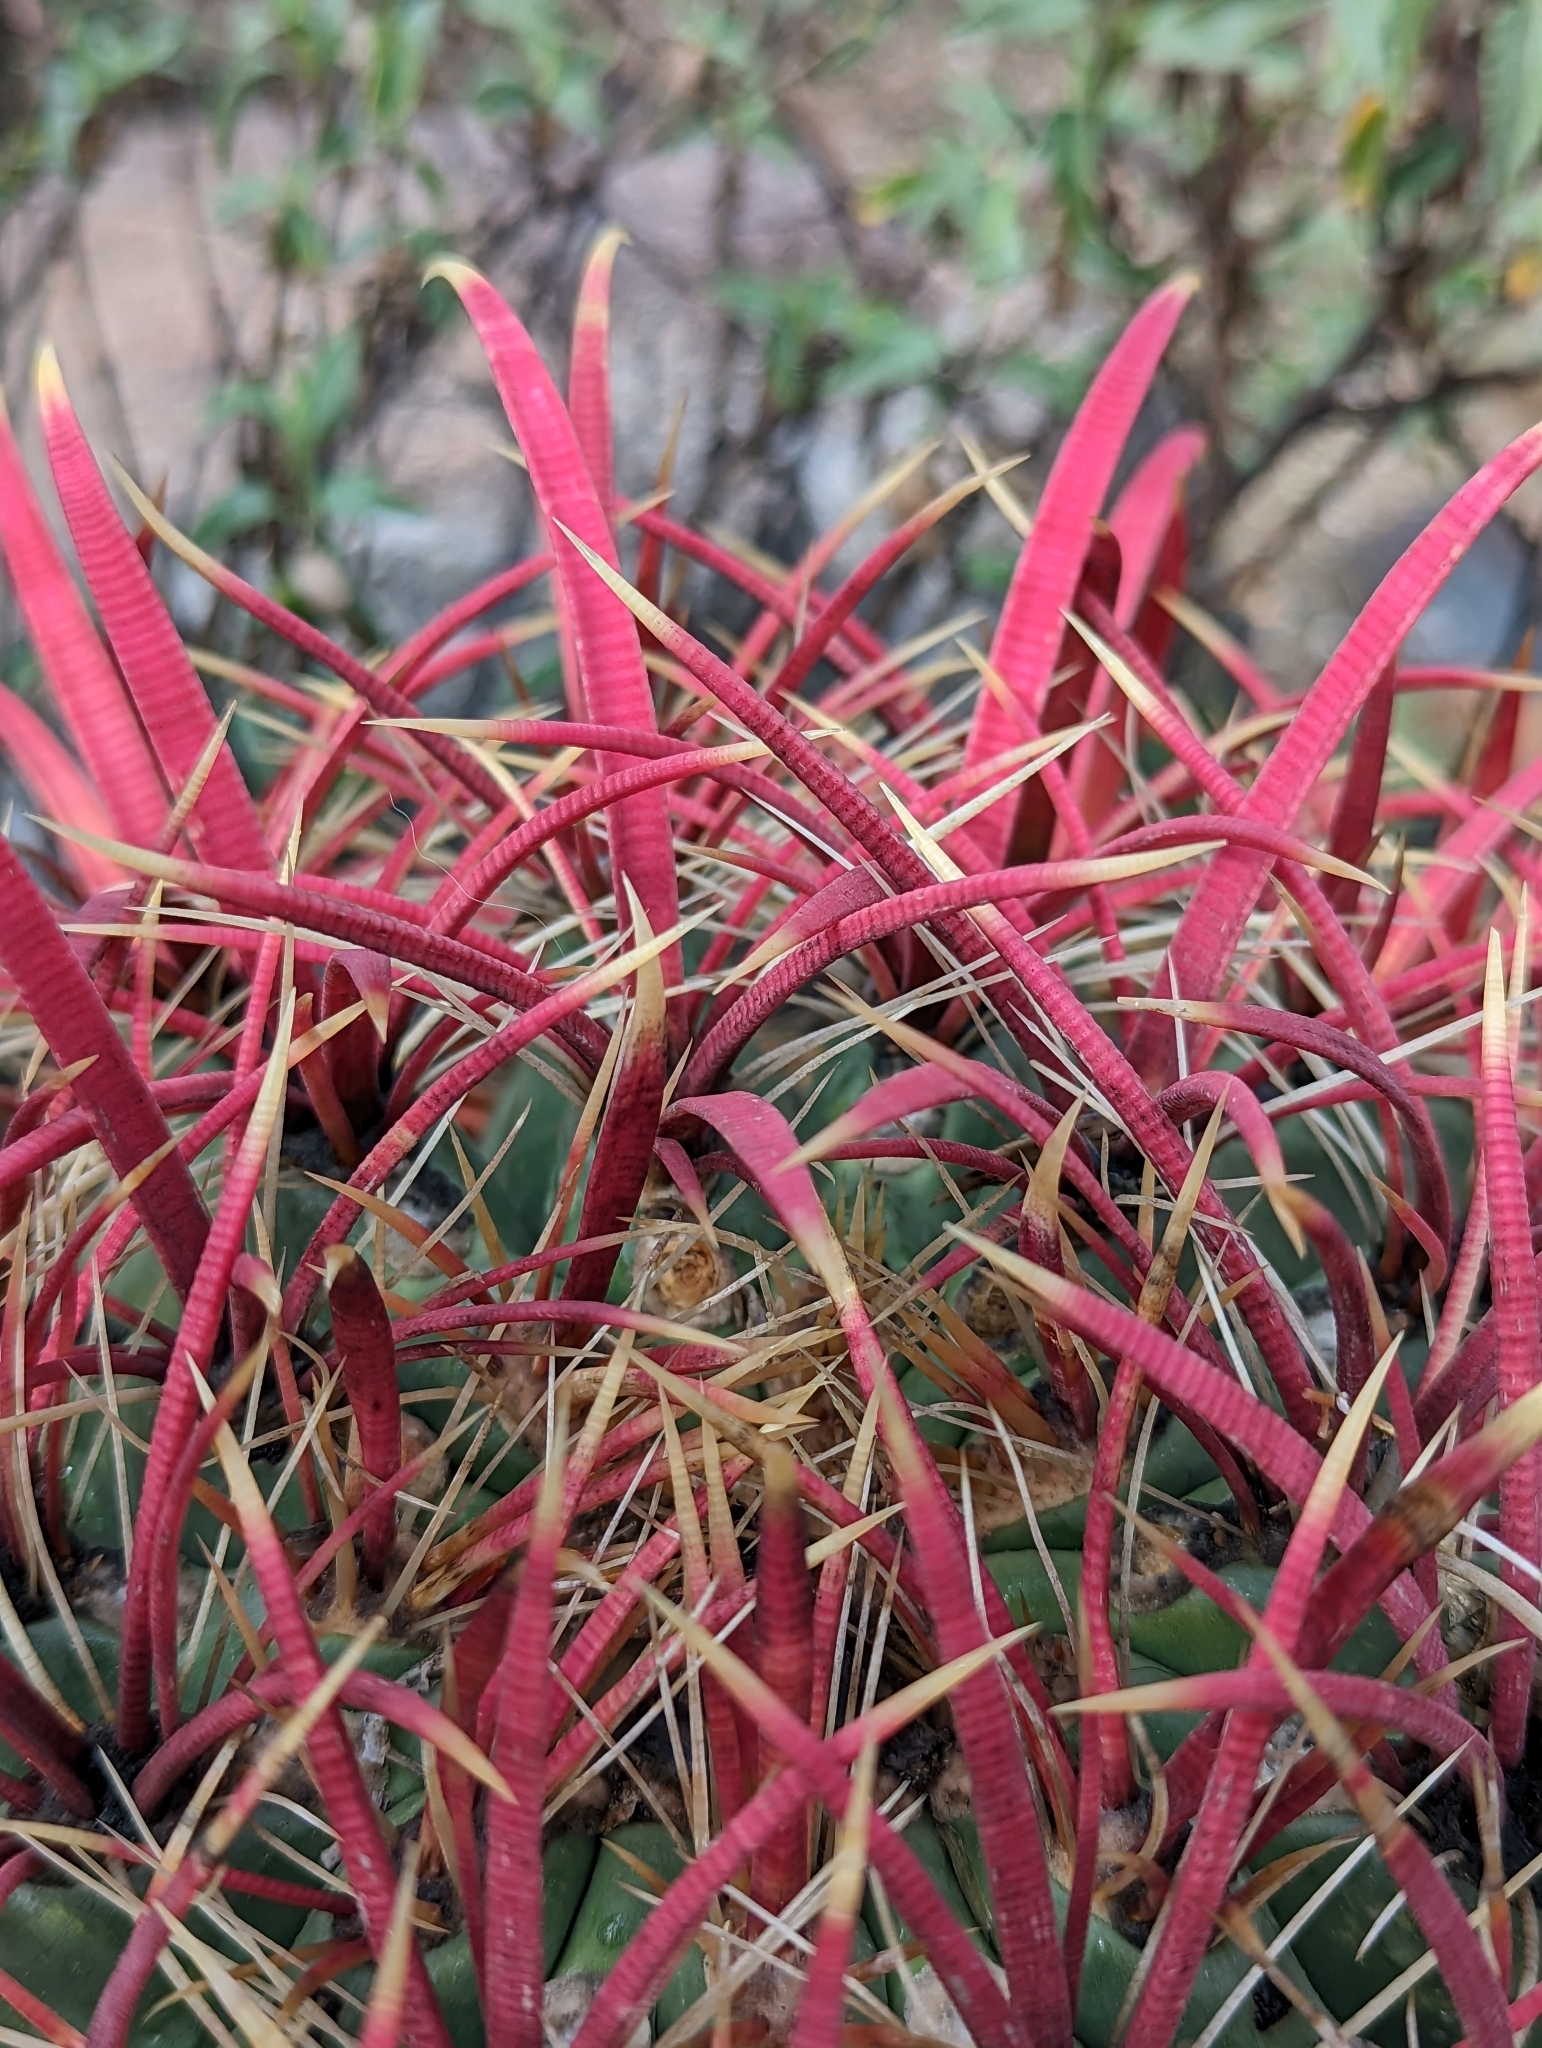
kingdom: Plantae
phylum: Tracheophyta
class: Magnoliopsida
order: Caryophyllales
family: Cactaceae
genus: Ferocactus
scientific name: Ferocactus cylindraceus
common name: California barrel cactus
